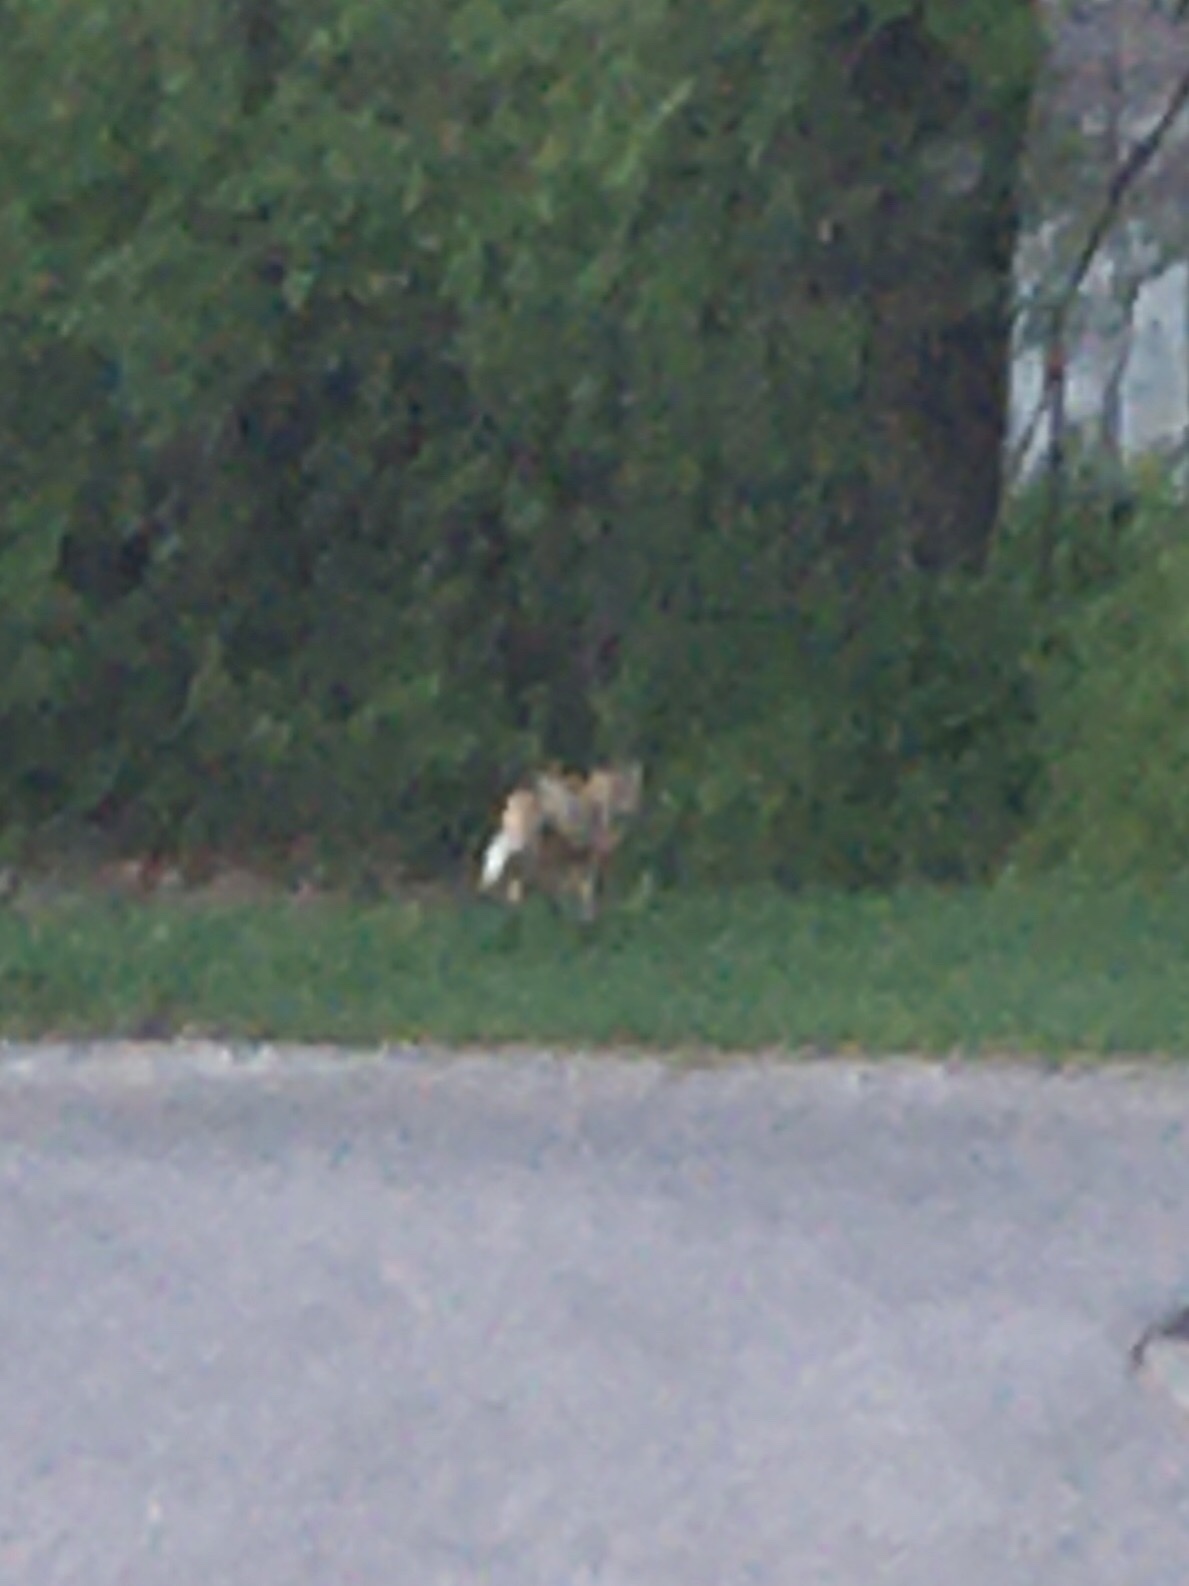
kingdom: Animalia
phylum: Chordata
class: Mammalia
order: Carnivora
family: Canidae
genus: Vulpes
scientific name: Vulpes vulpes
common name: Red fox
